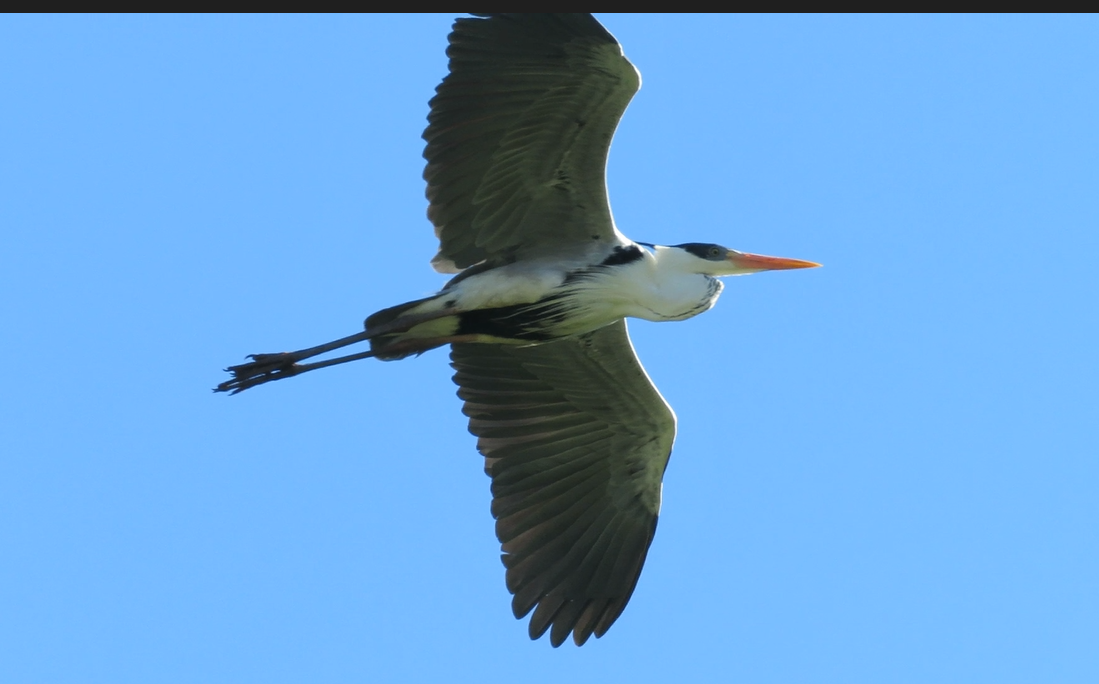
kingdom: Animalia
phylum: Chordata
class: Aves
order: Pelecaniformes
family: Ardeidae
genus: Ardea
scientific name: Ardea cocoi
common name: Cocoi heron
